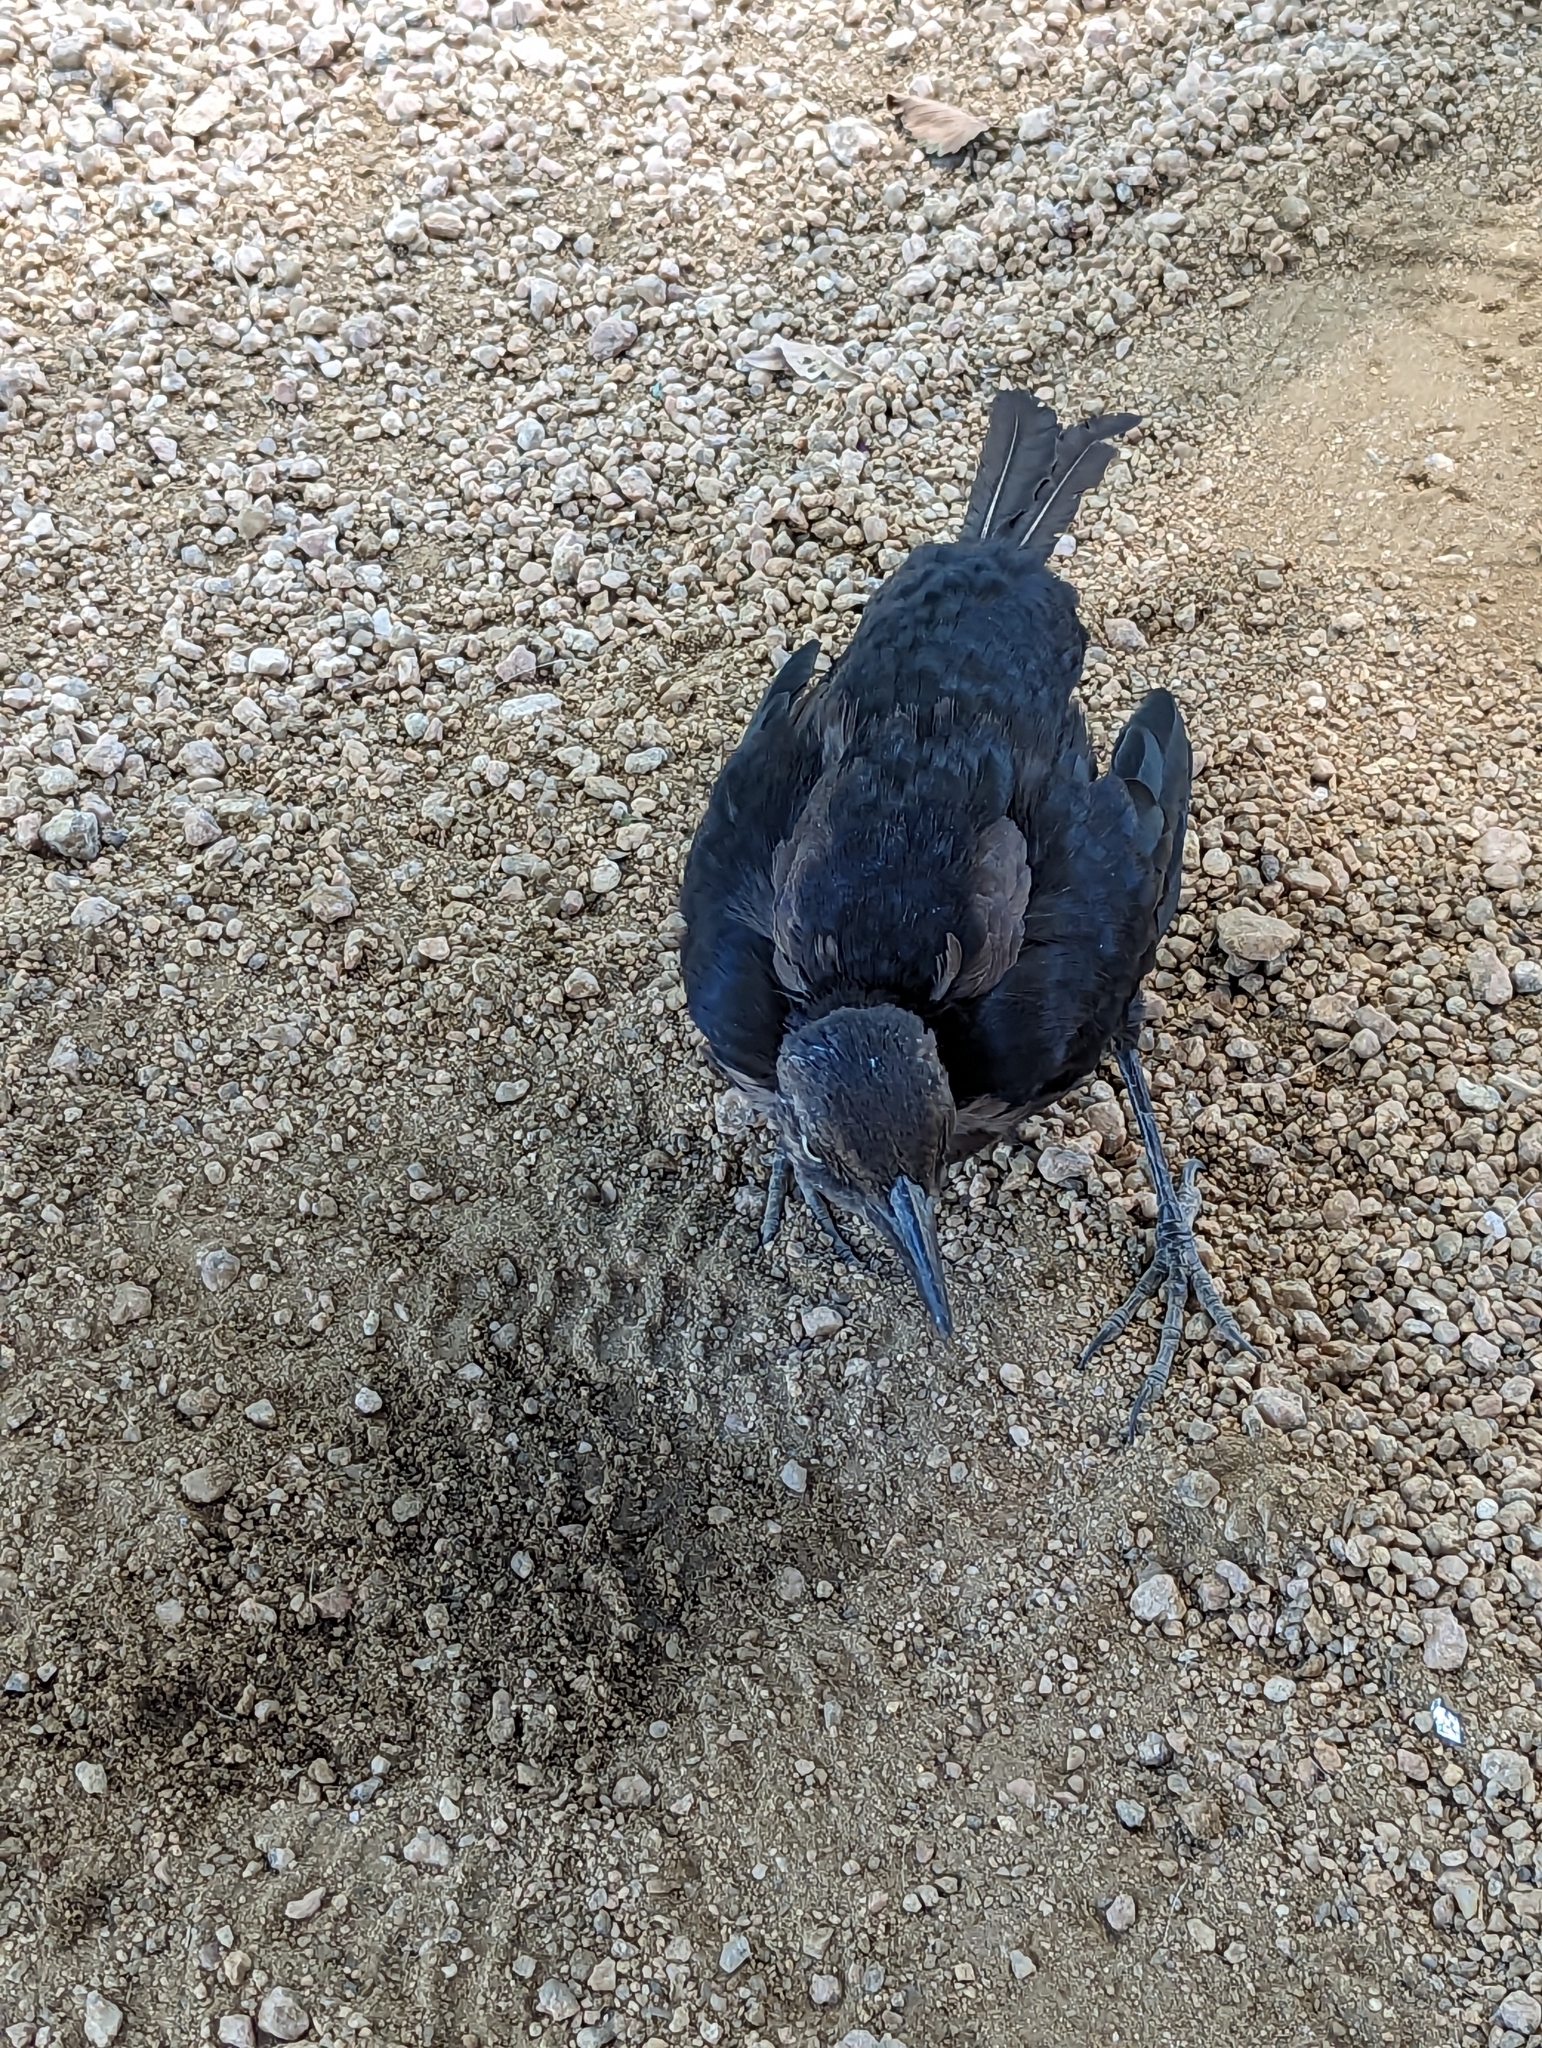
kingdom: Animalia
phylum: Chordata
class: Aves
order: Passeriformes
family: Icteridae
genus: Quiscalus
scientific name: Quiscalus mexicanus
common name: Great-tailed grackle
